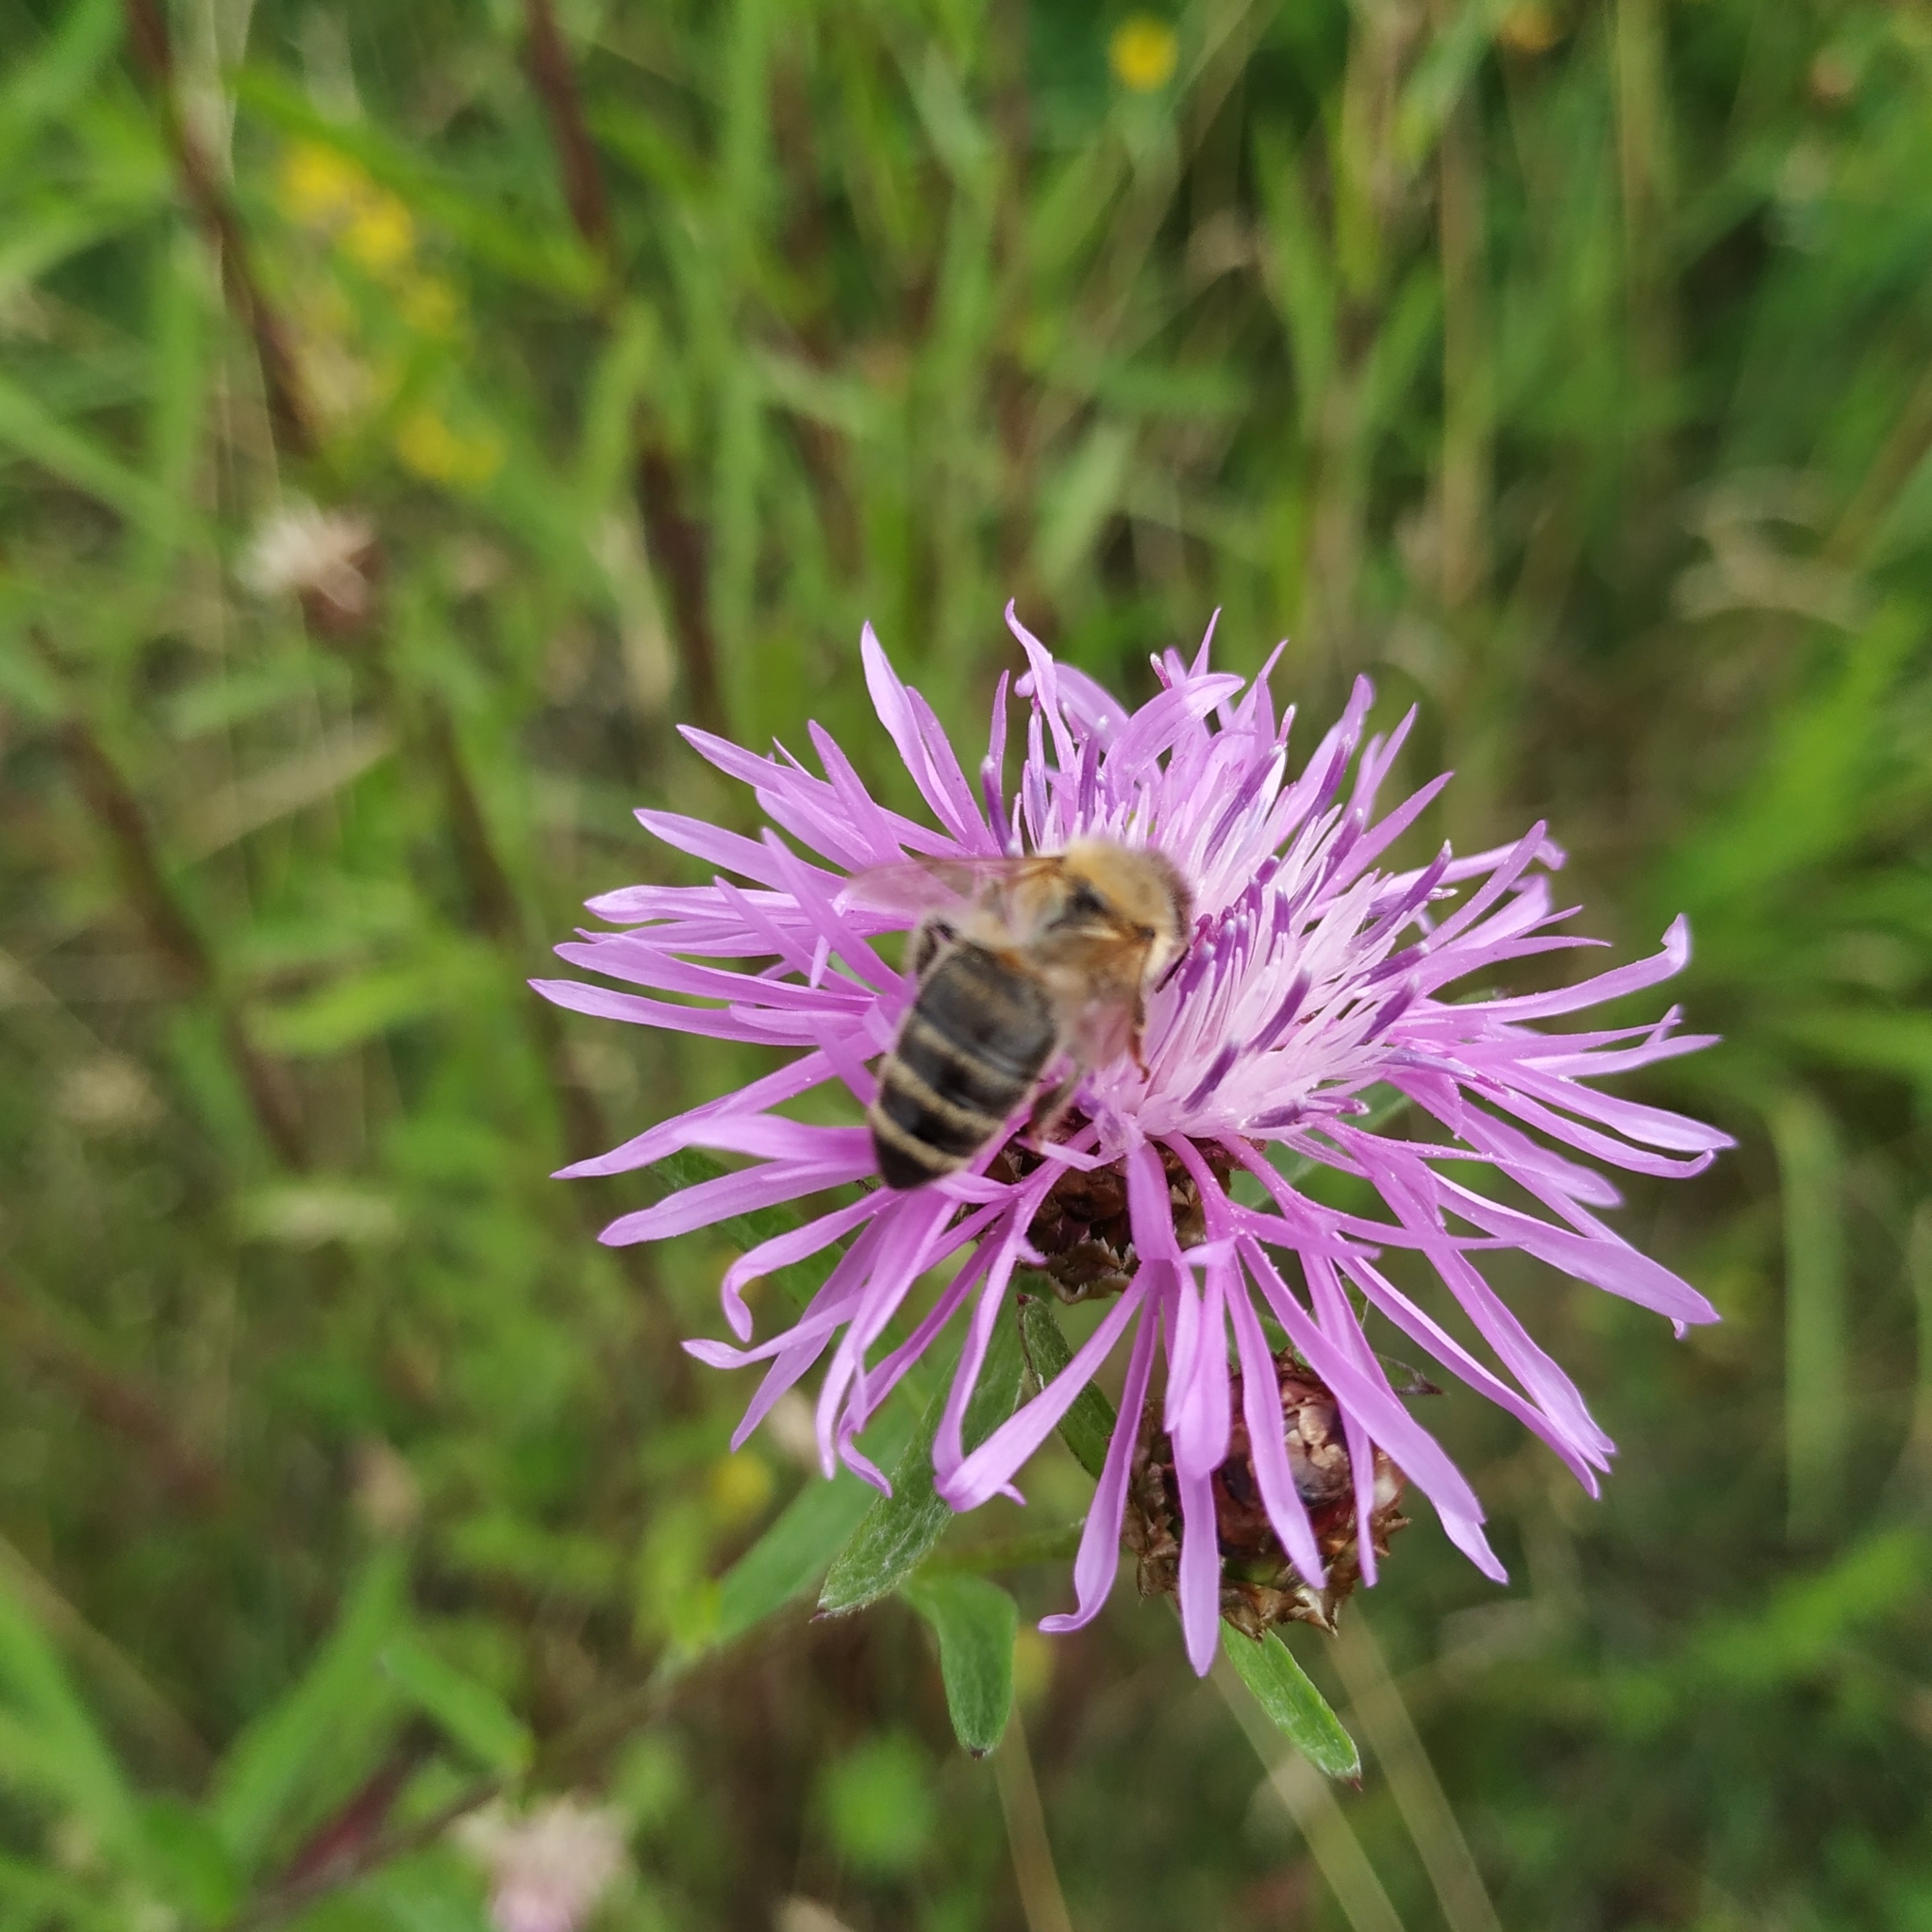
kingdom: Animalia
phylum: Arthropoda
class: Insecta
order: Hymenoptera
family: Apidae
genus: Apis
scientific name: Apis mellifera
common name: Honey bee
